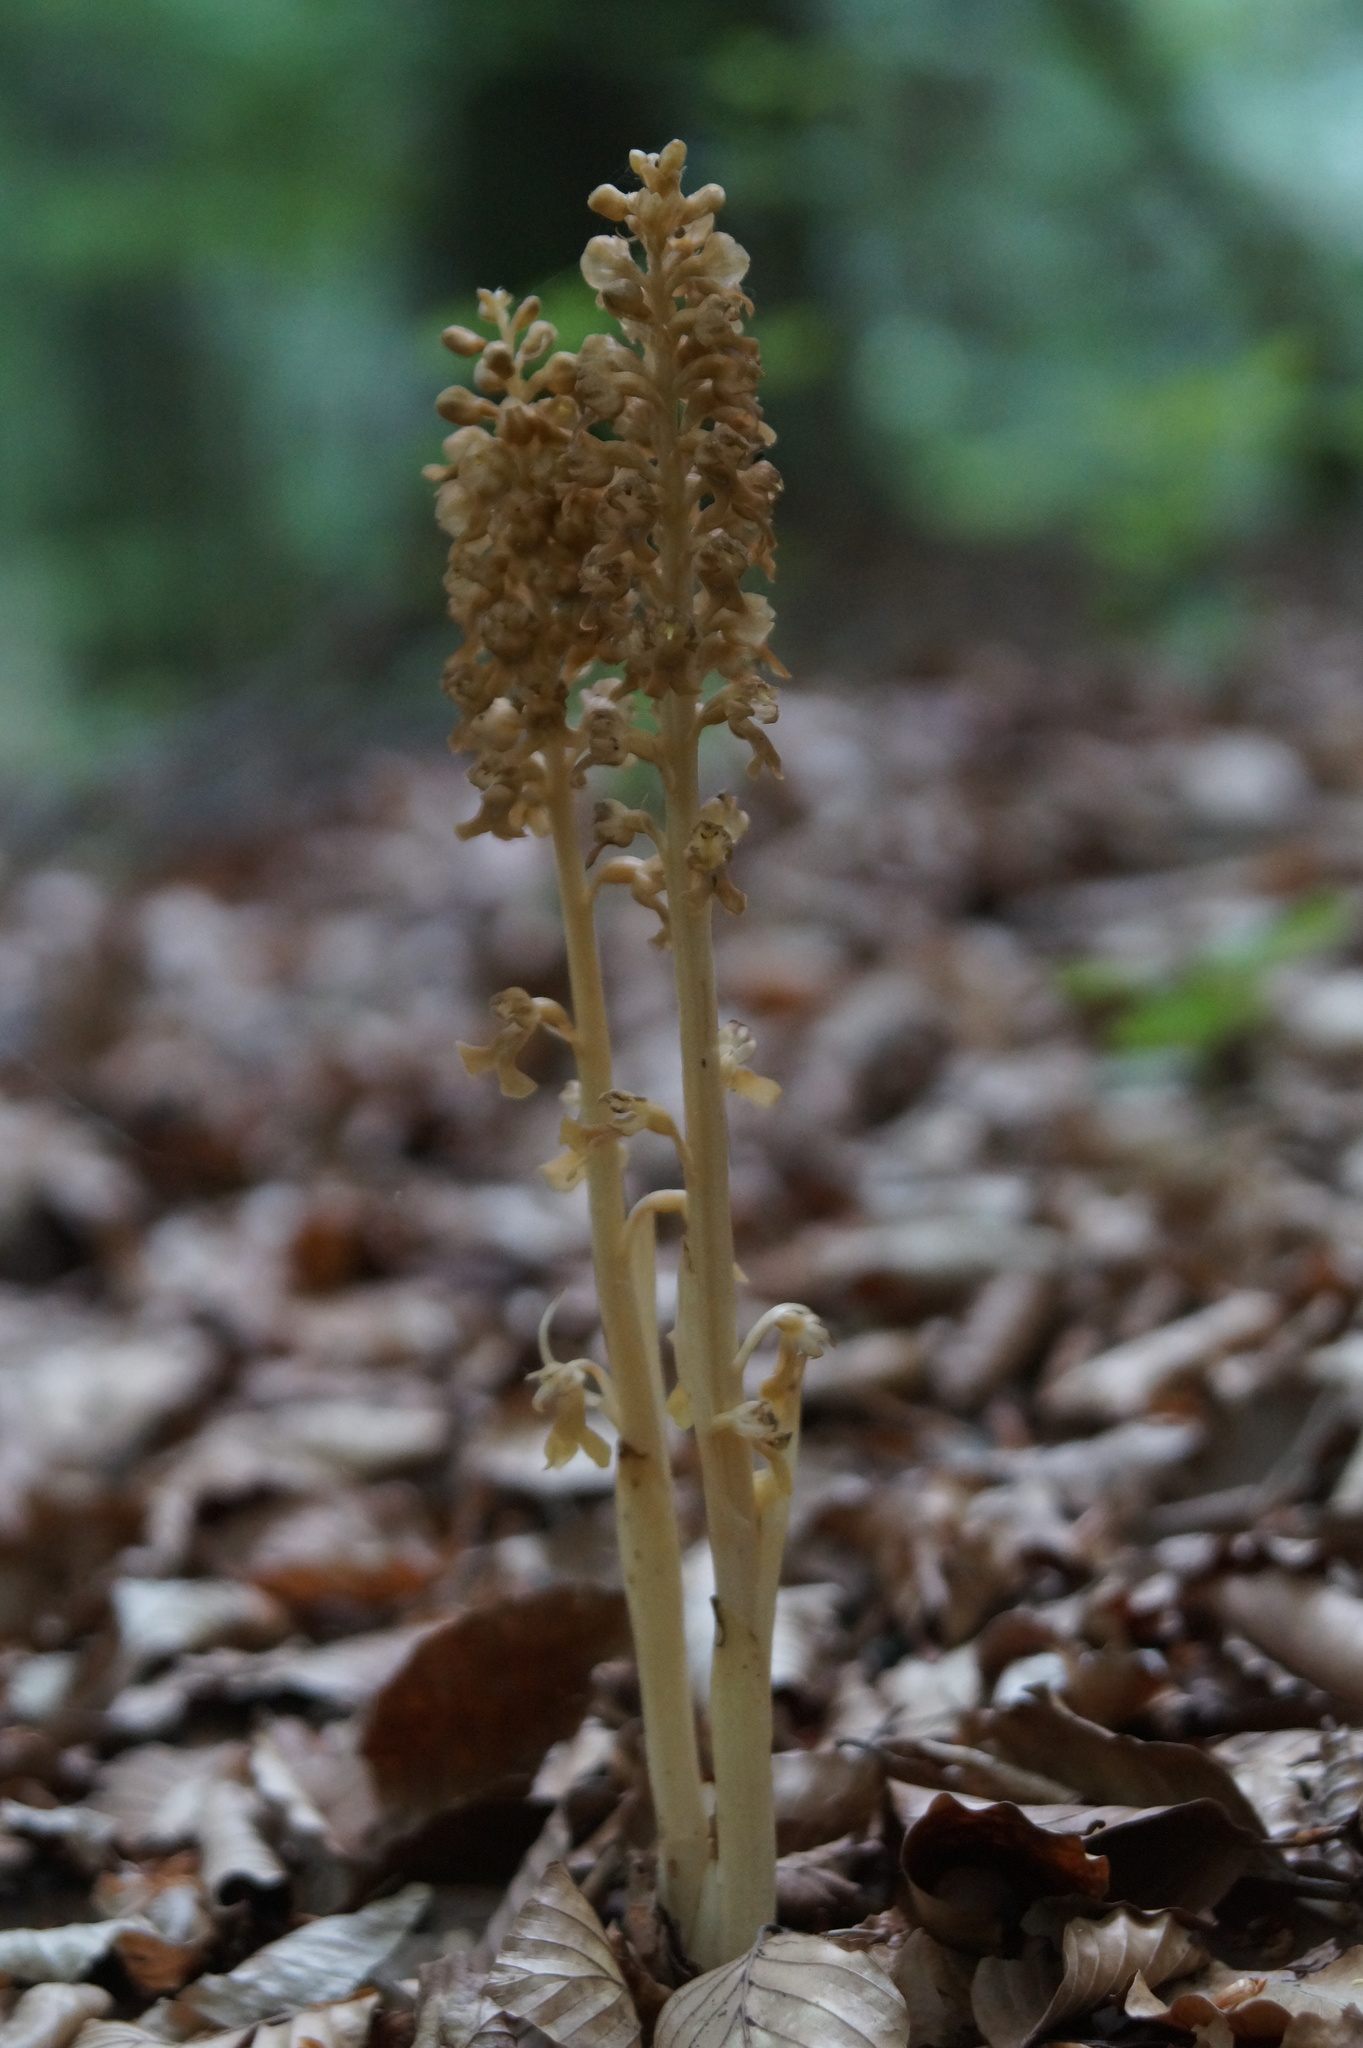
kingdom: Plantae
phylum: Tracheophyta
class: Liliopsida
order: Asparagales
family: Orchidaceae
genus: Neottia
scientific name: Neottia nidus-avis
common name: Bird's-nest orchid
